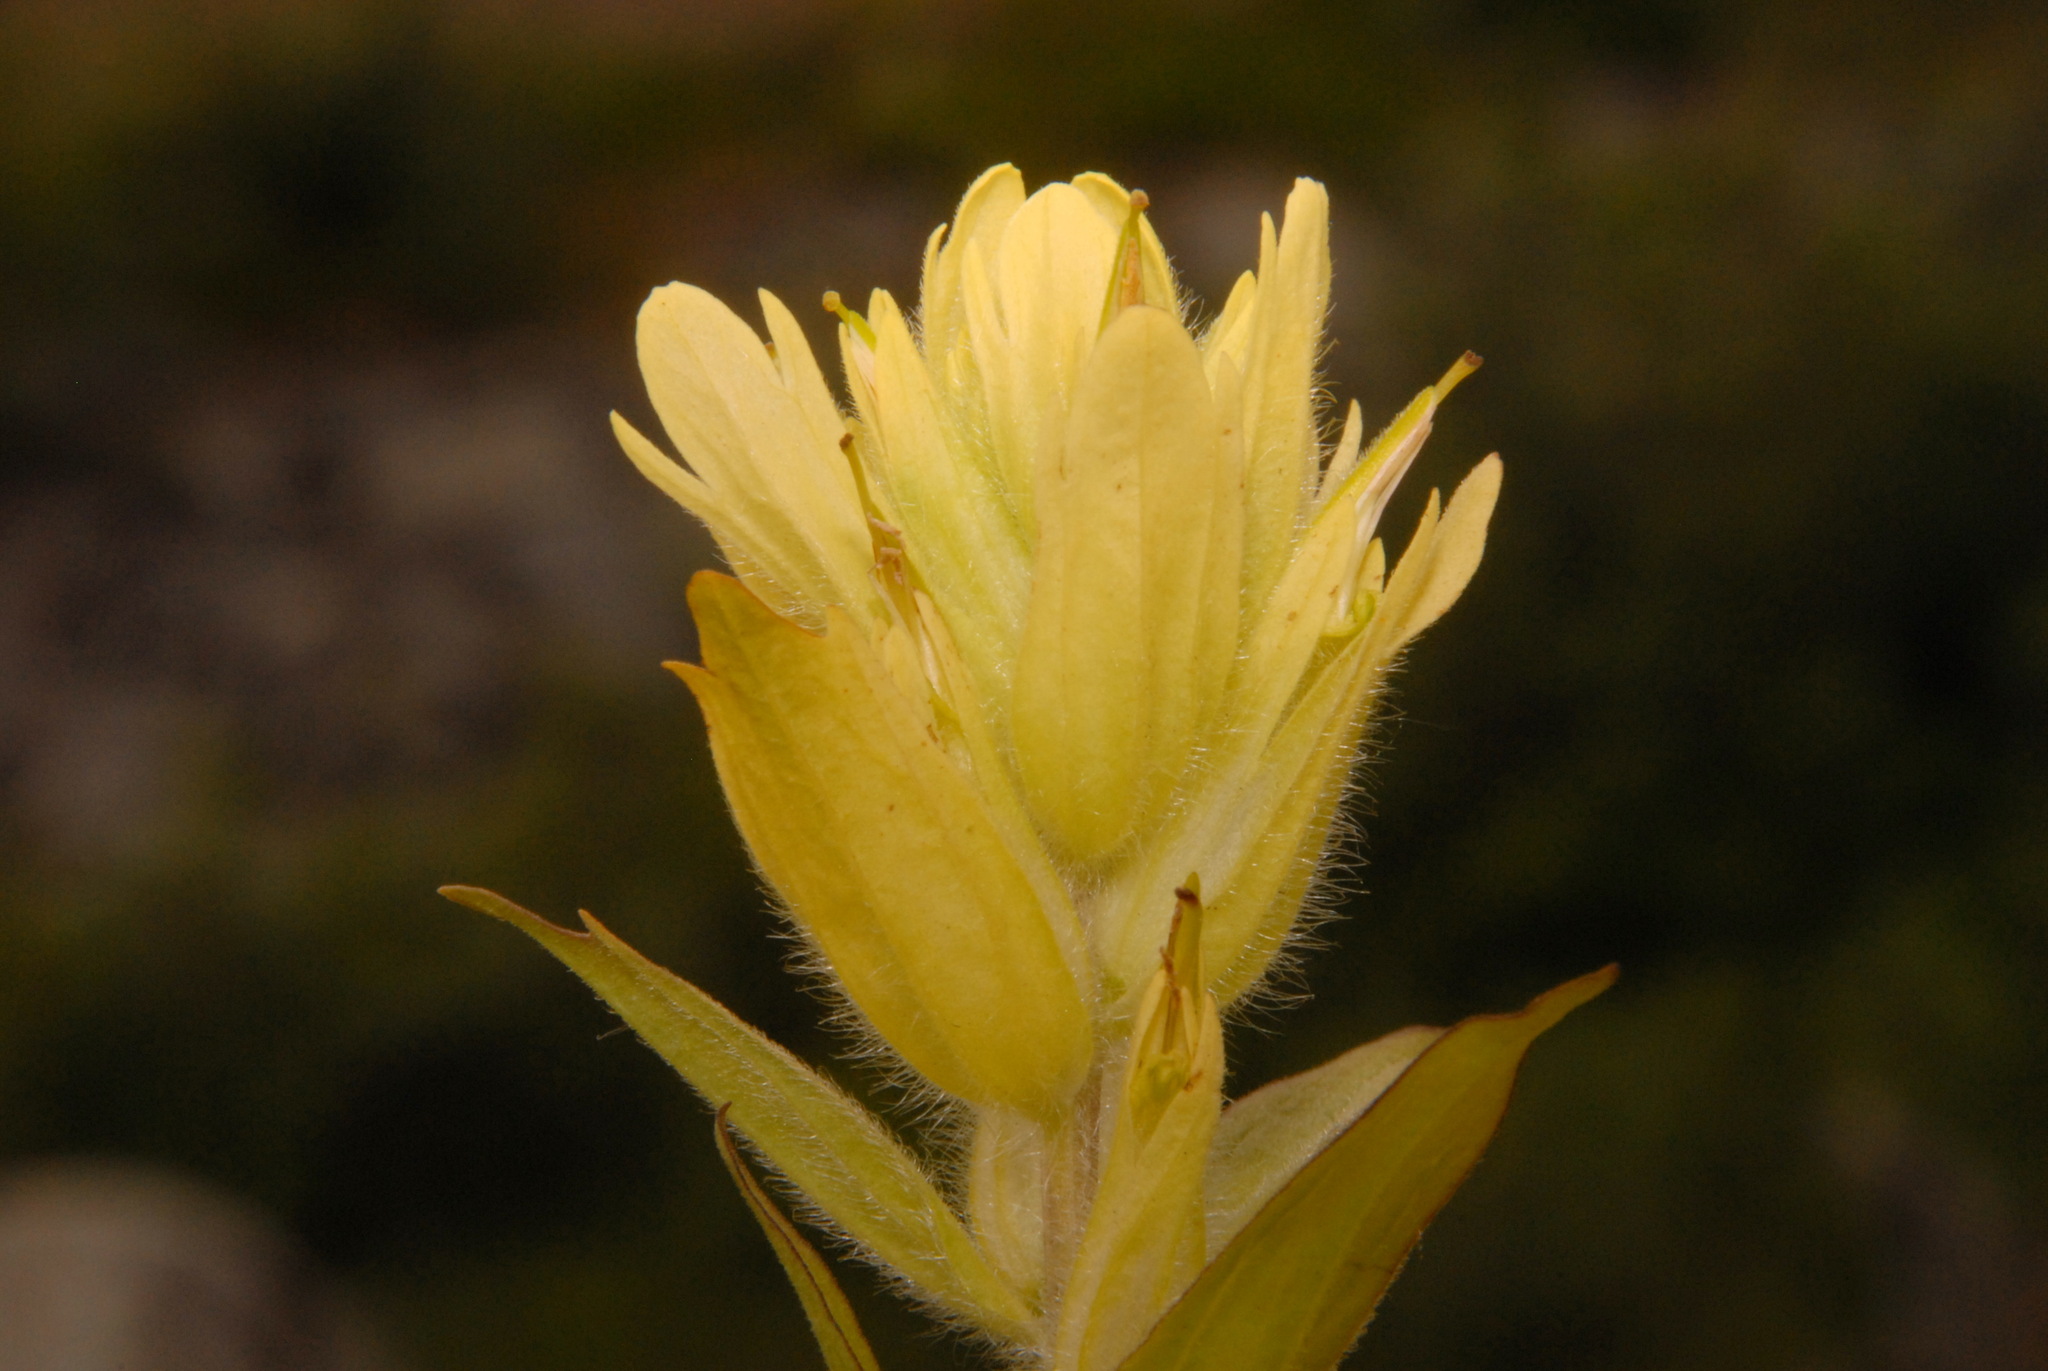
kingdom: Plantae
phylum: Tracheophyta
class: Magnoliopsida
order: Lamiales
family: Orobanchaceae
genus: Castilleja
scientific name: Castilleja unalaschcensis
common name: Unalaska paintbrush
